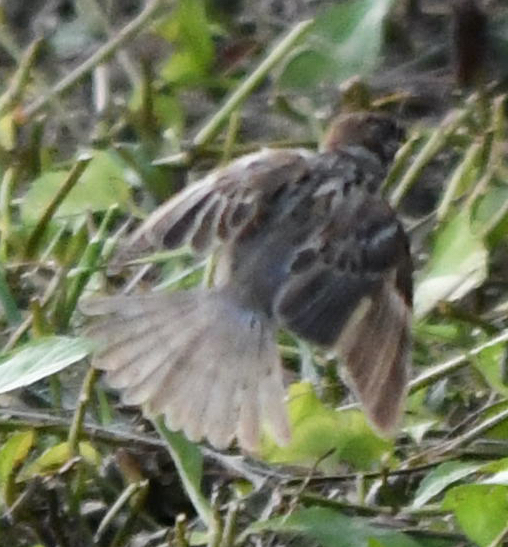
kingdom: Animalia
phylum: Chordata
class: Aves
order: Passeriformes
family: Passeridae
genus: Passer
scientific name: Passer montanus
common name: Eurasian tree sparrow
